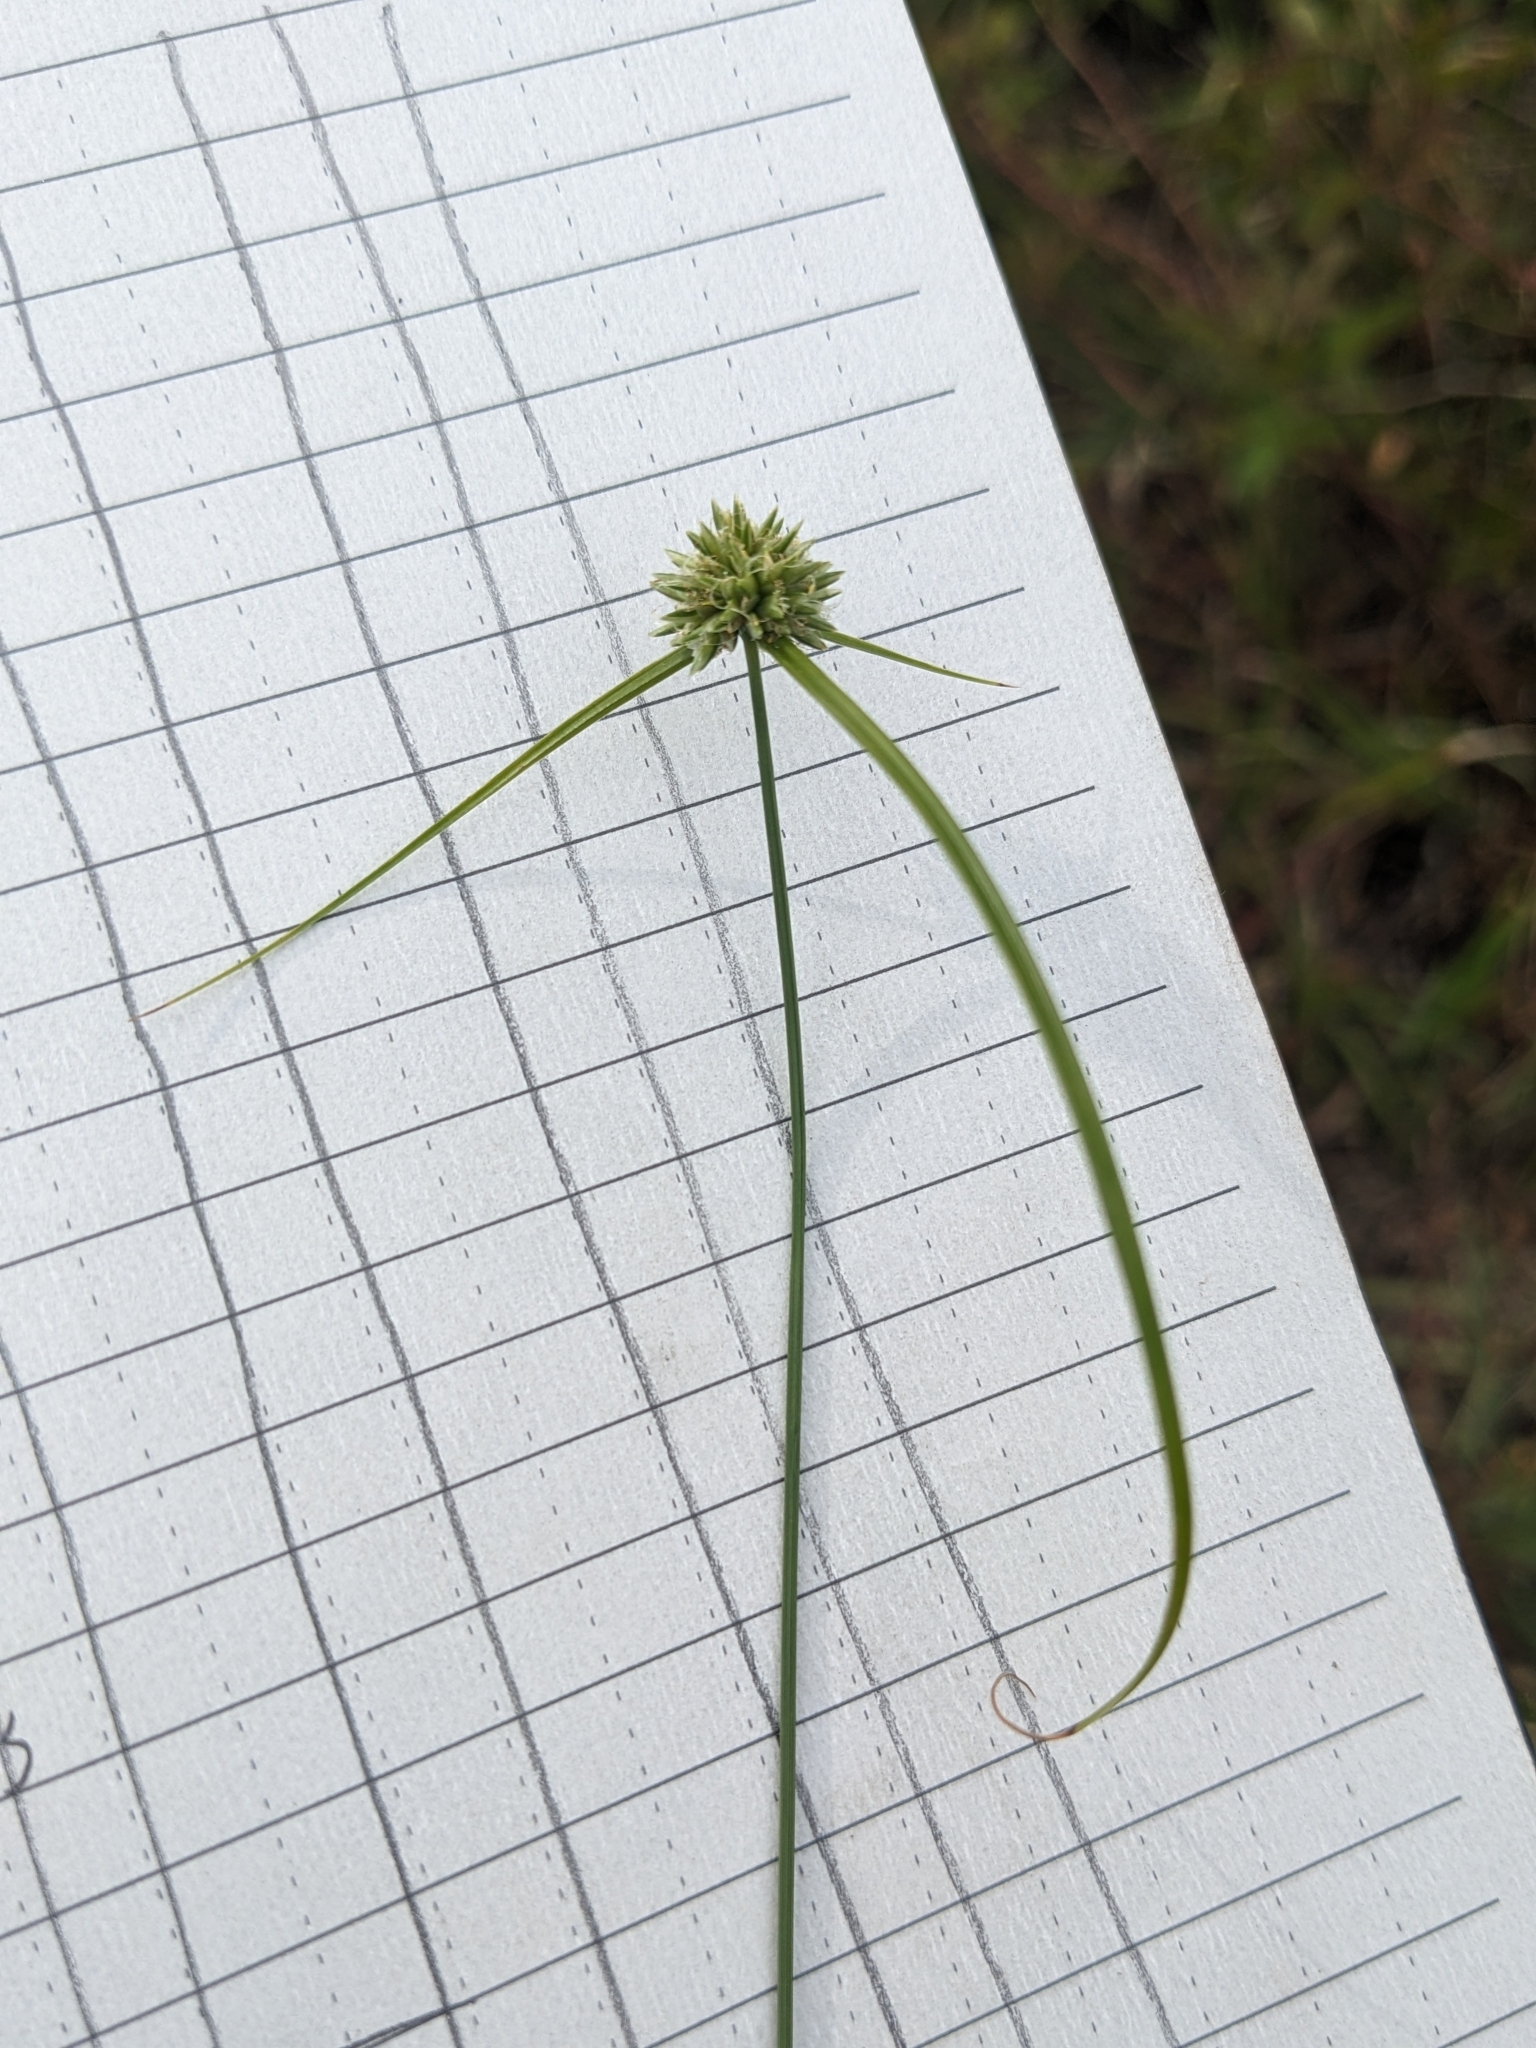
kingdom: Plantae
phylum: Tracheophyta
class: Liliopsida
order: Poales
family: Cyperaceae
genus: Cyperus
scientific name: Cyperus lupulinus
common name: Great plains flatsedge
